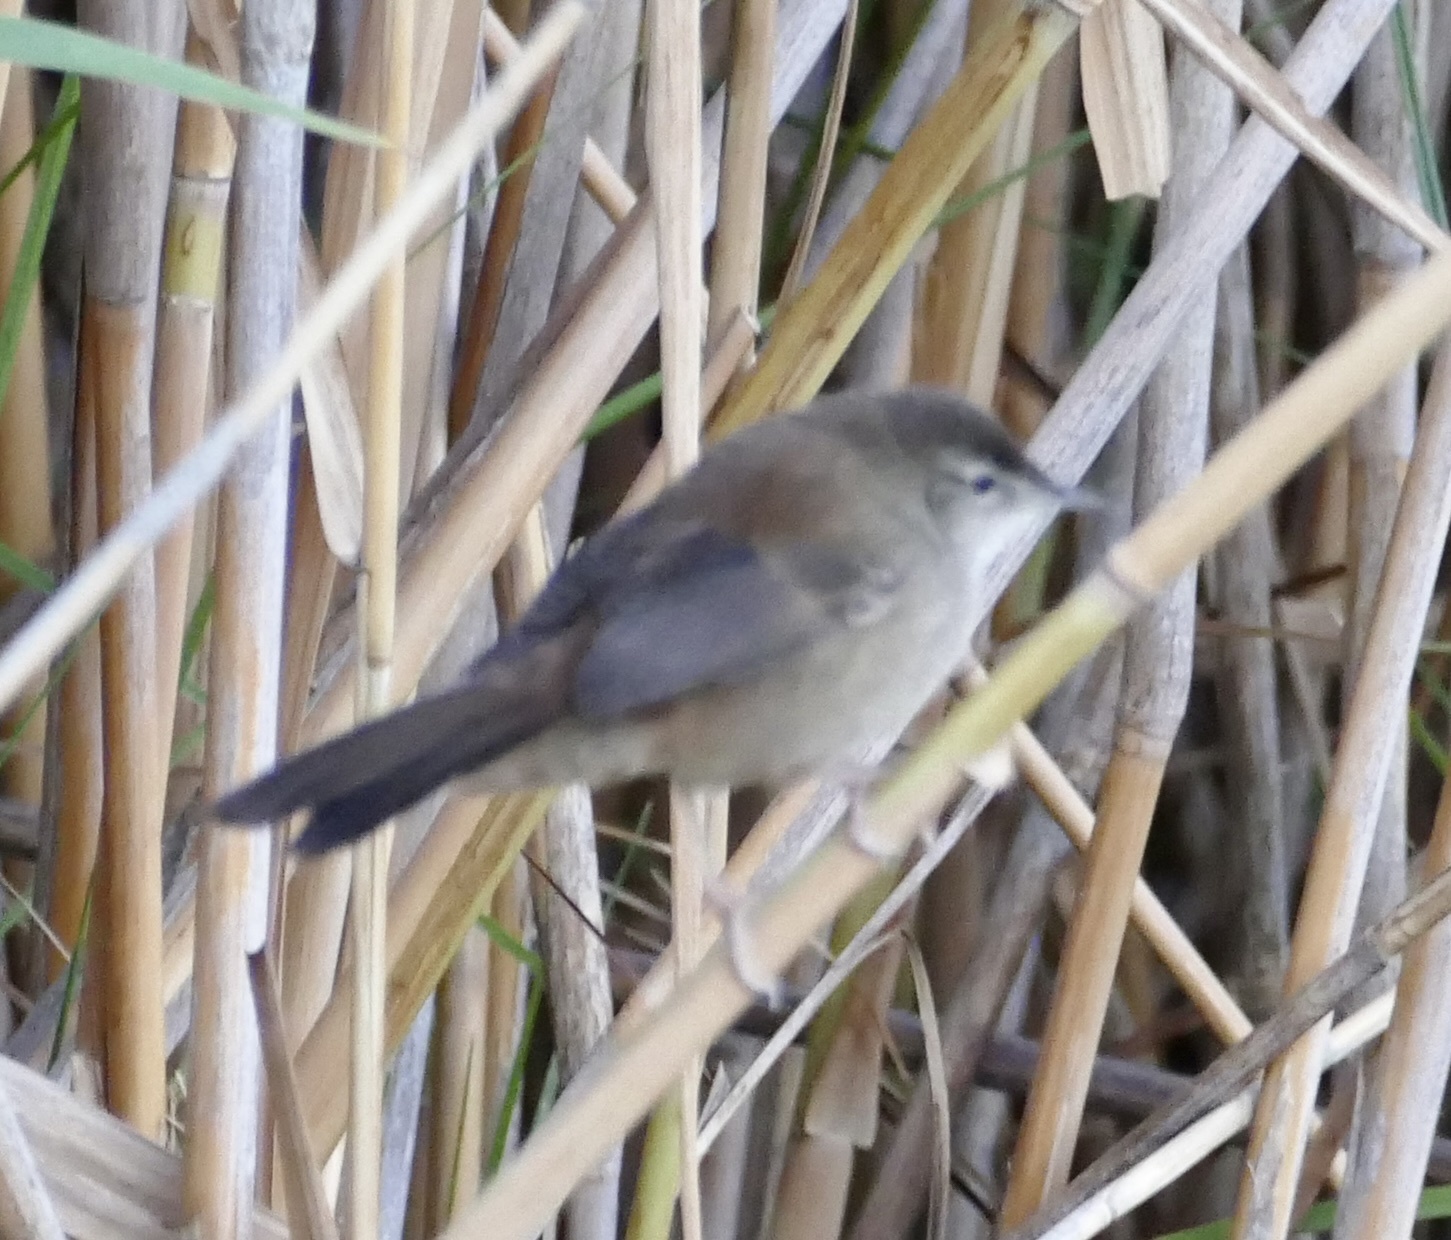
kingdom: Animalia
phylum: Chordata
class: Aves
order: Passeriformes
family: Locustellidae
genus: Bradypterus
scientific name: Bradypterus baboecala
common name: Little rush warbler
